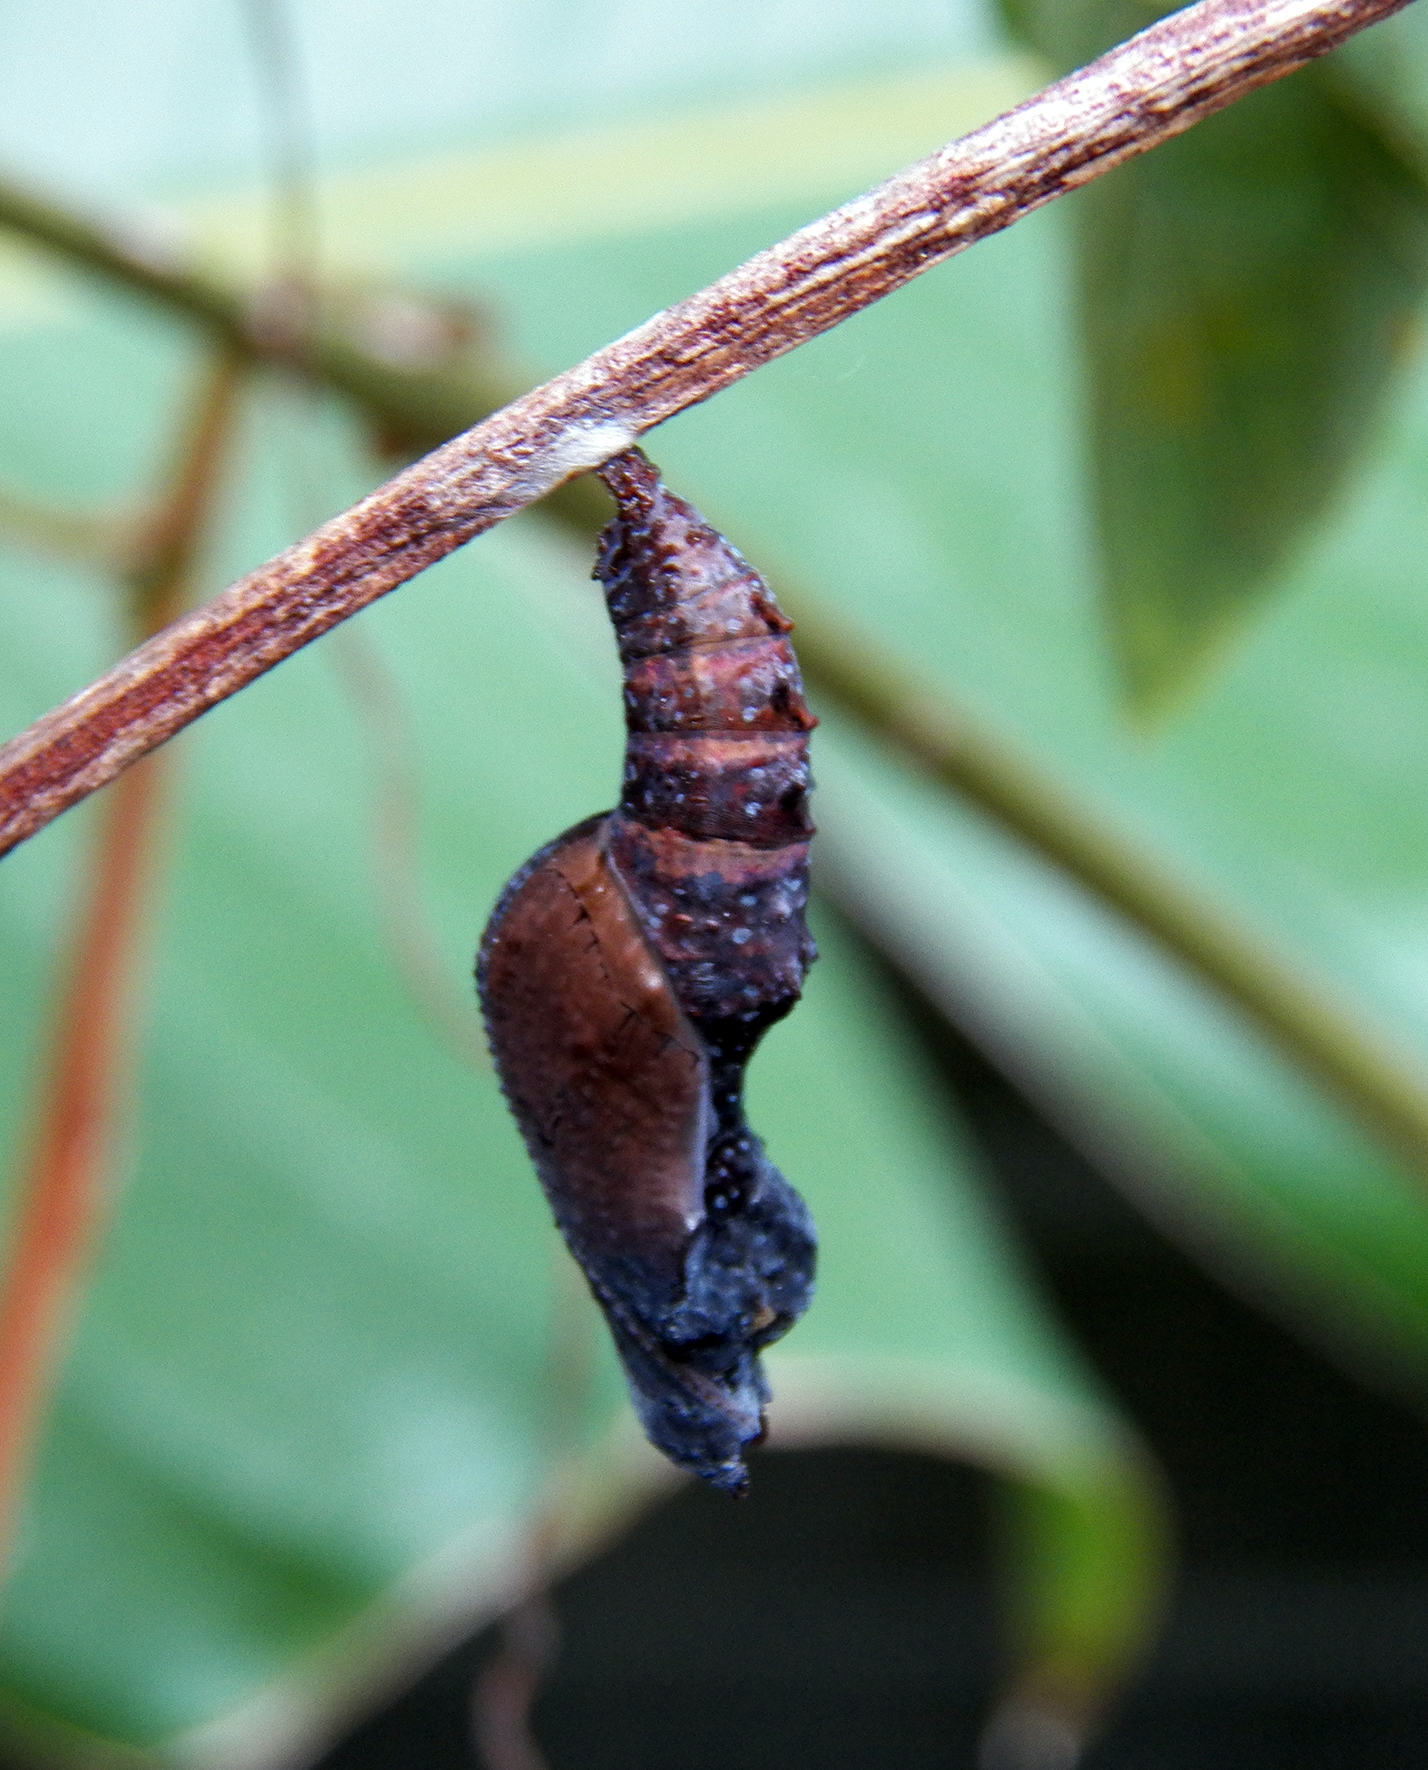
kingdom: Animalia
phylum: Arthropoda
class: Insecta
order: Lepidoptera
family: Nymphalidae
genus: Dione
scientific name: Dione vanillae
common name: Gulf fritillary
